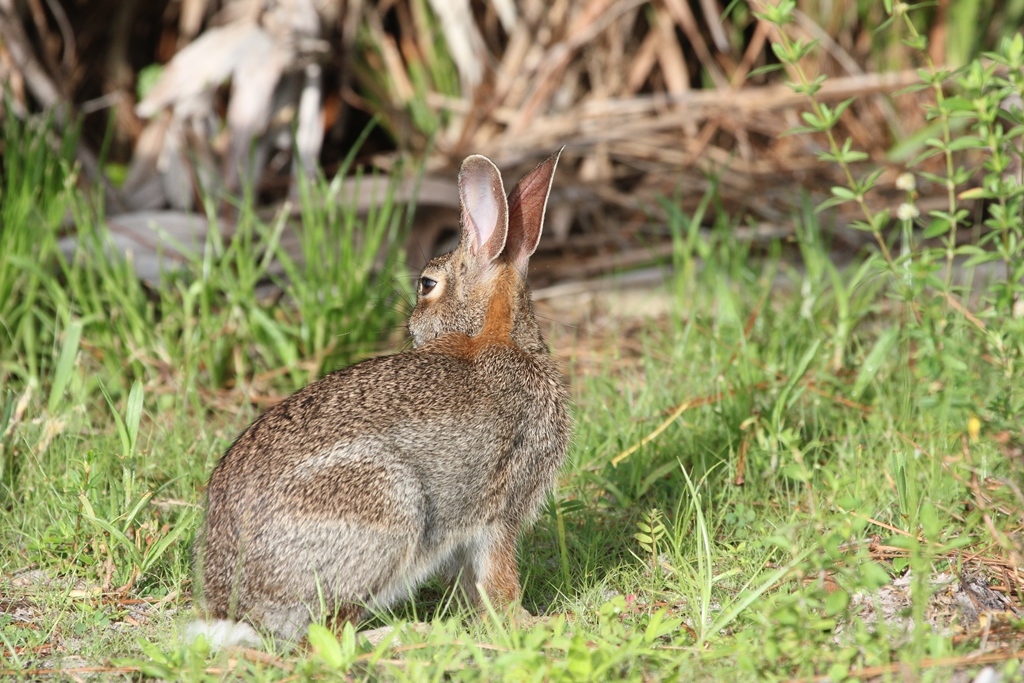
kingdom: Animalia
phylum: Chordata
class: Mammalia
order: Lagomorpha
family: Leporidae
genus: Sylvilagus
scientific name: Sylvilagus floridanus
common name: Eastern cottontail
